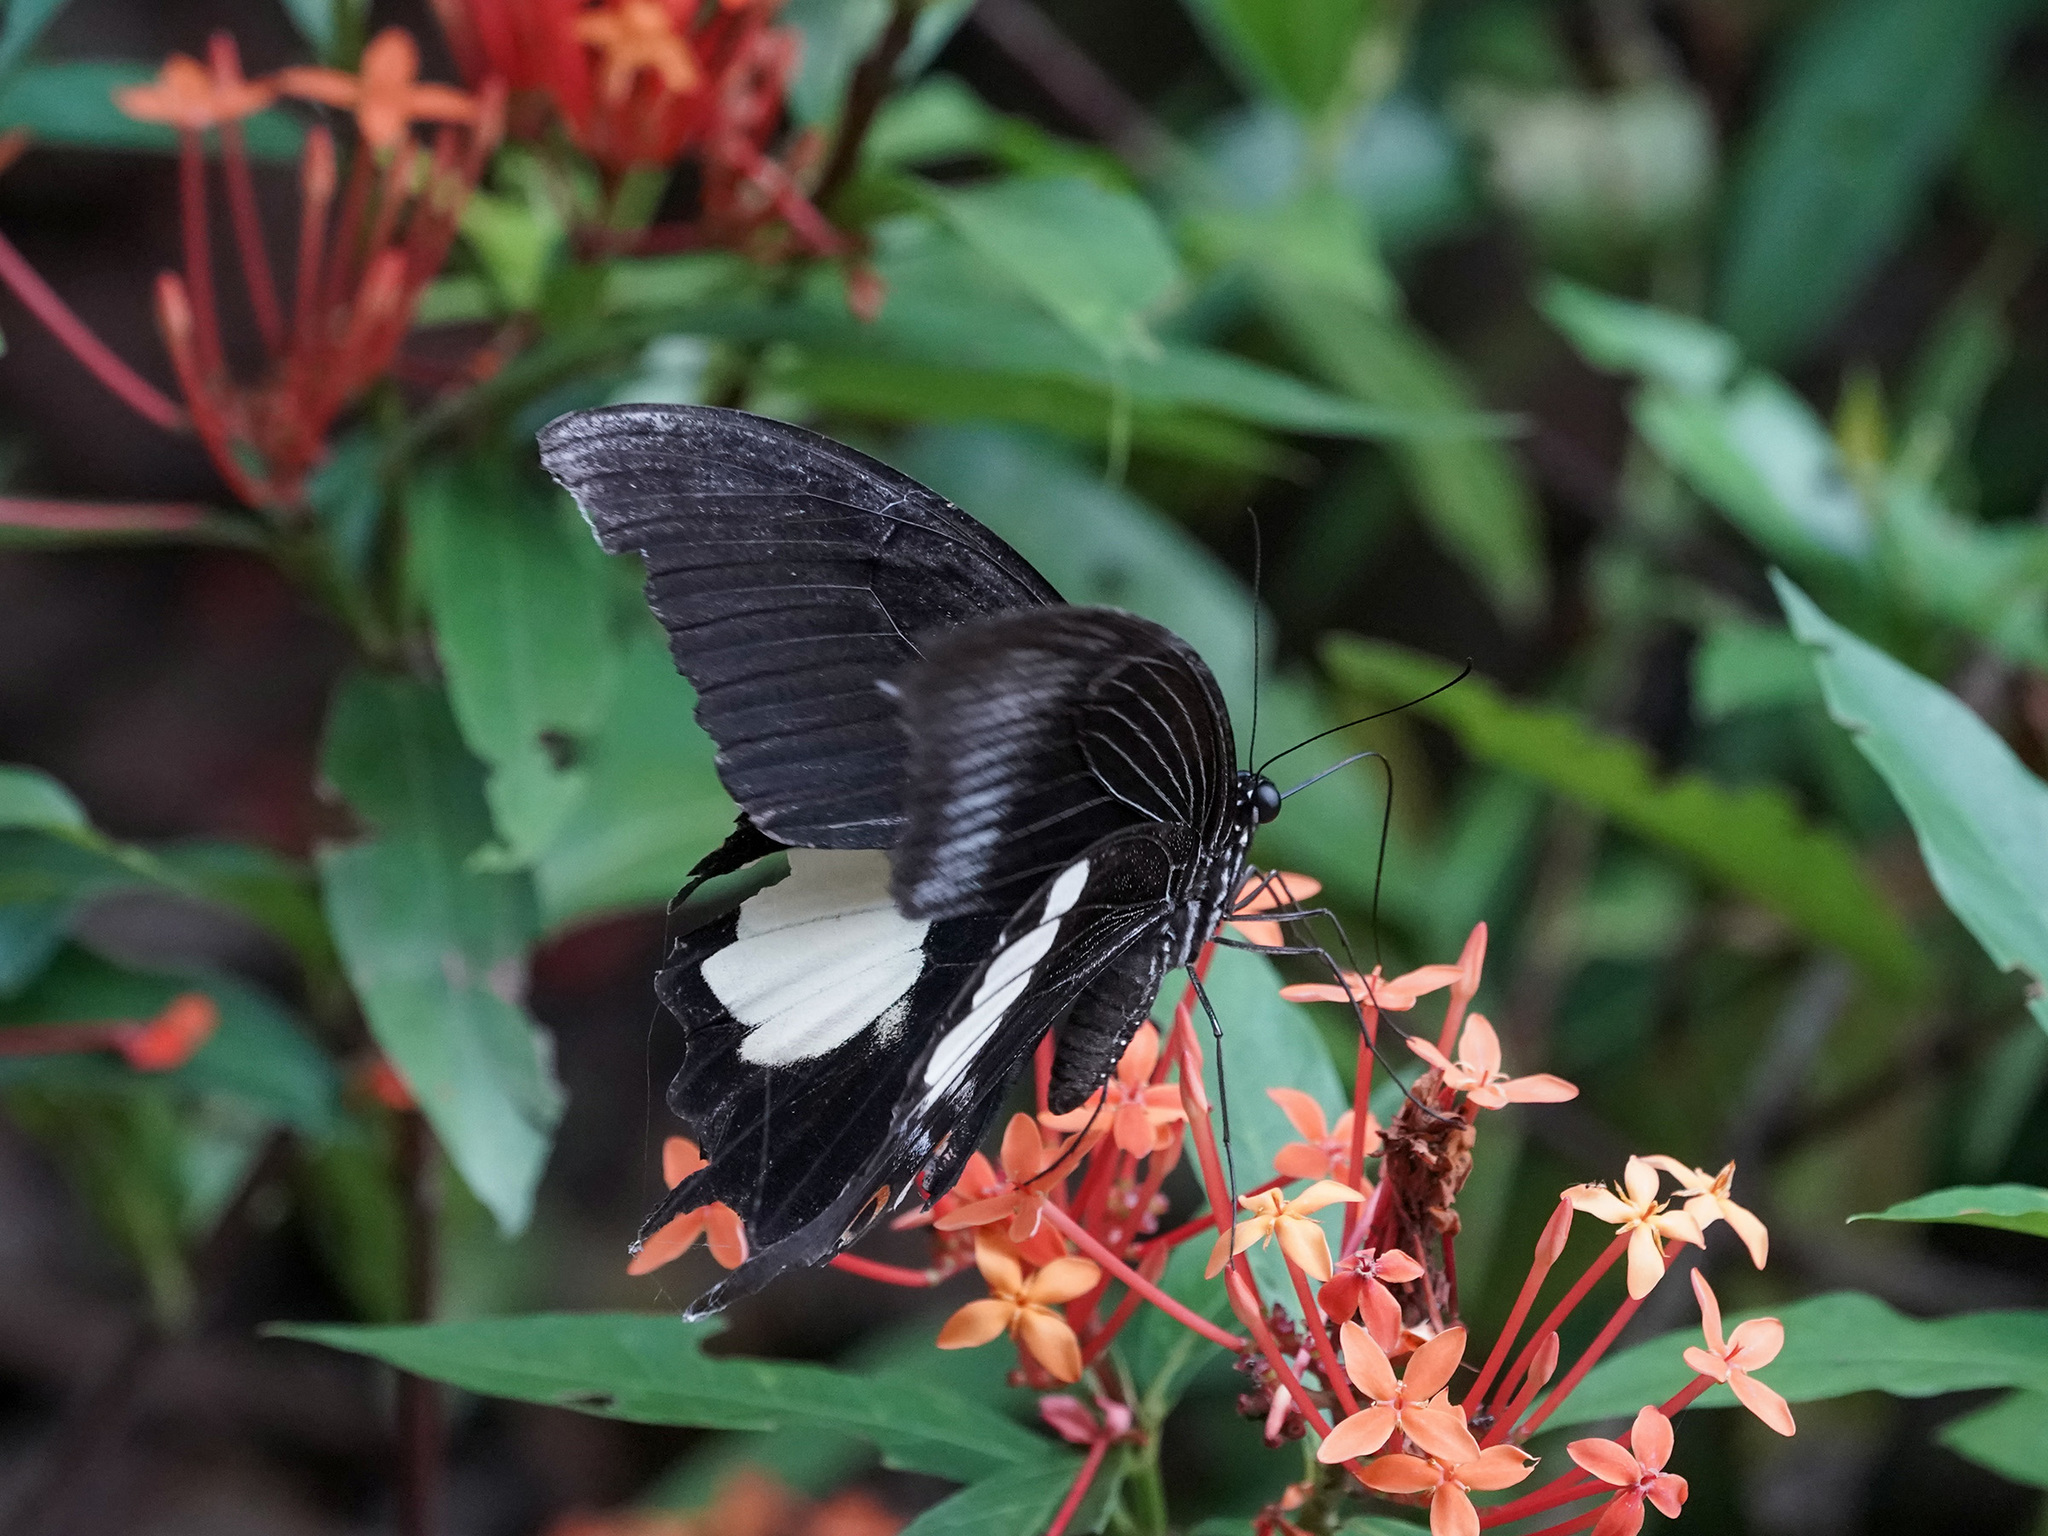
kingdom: Animalia
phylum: Arthropoda
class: Insecta
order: Lepidoptera
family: Papilionidae
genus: Papilio
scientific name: Papilio iswara
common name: Great helen swallowtail
